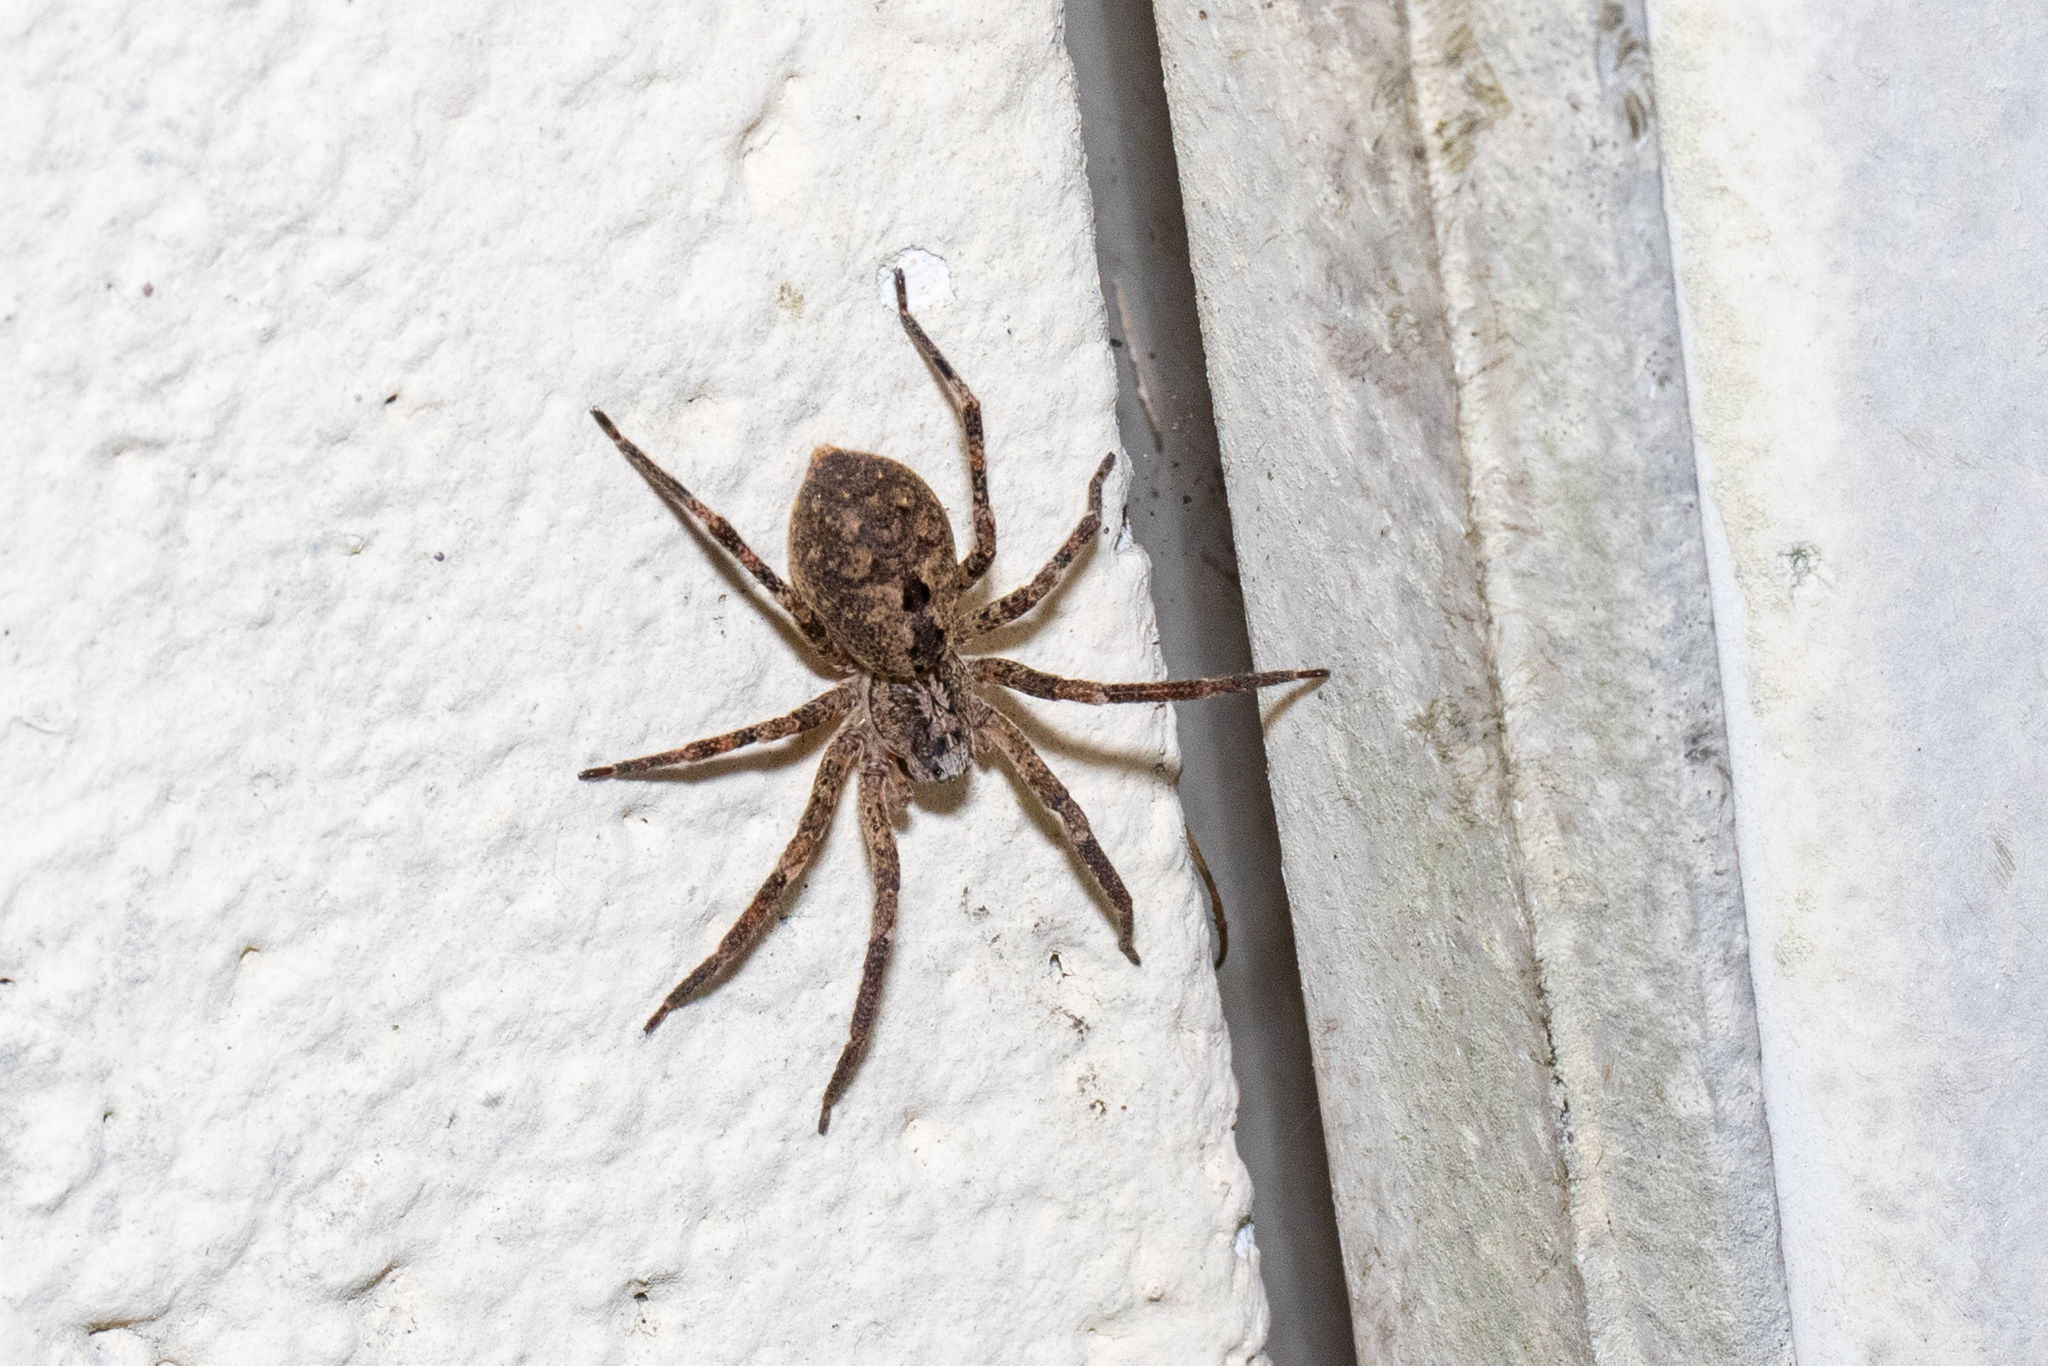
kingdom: Animalia
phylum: Arthropoda
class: Arachnida
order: Araneae
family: Zoropsidae
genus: Zoropsis
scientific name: Zoropsis spinimana
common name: Zoropsid spider
